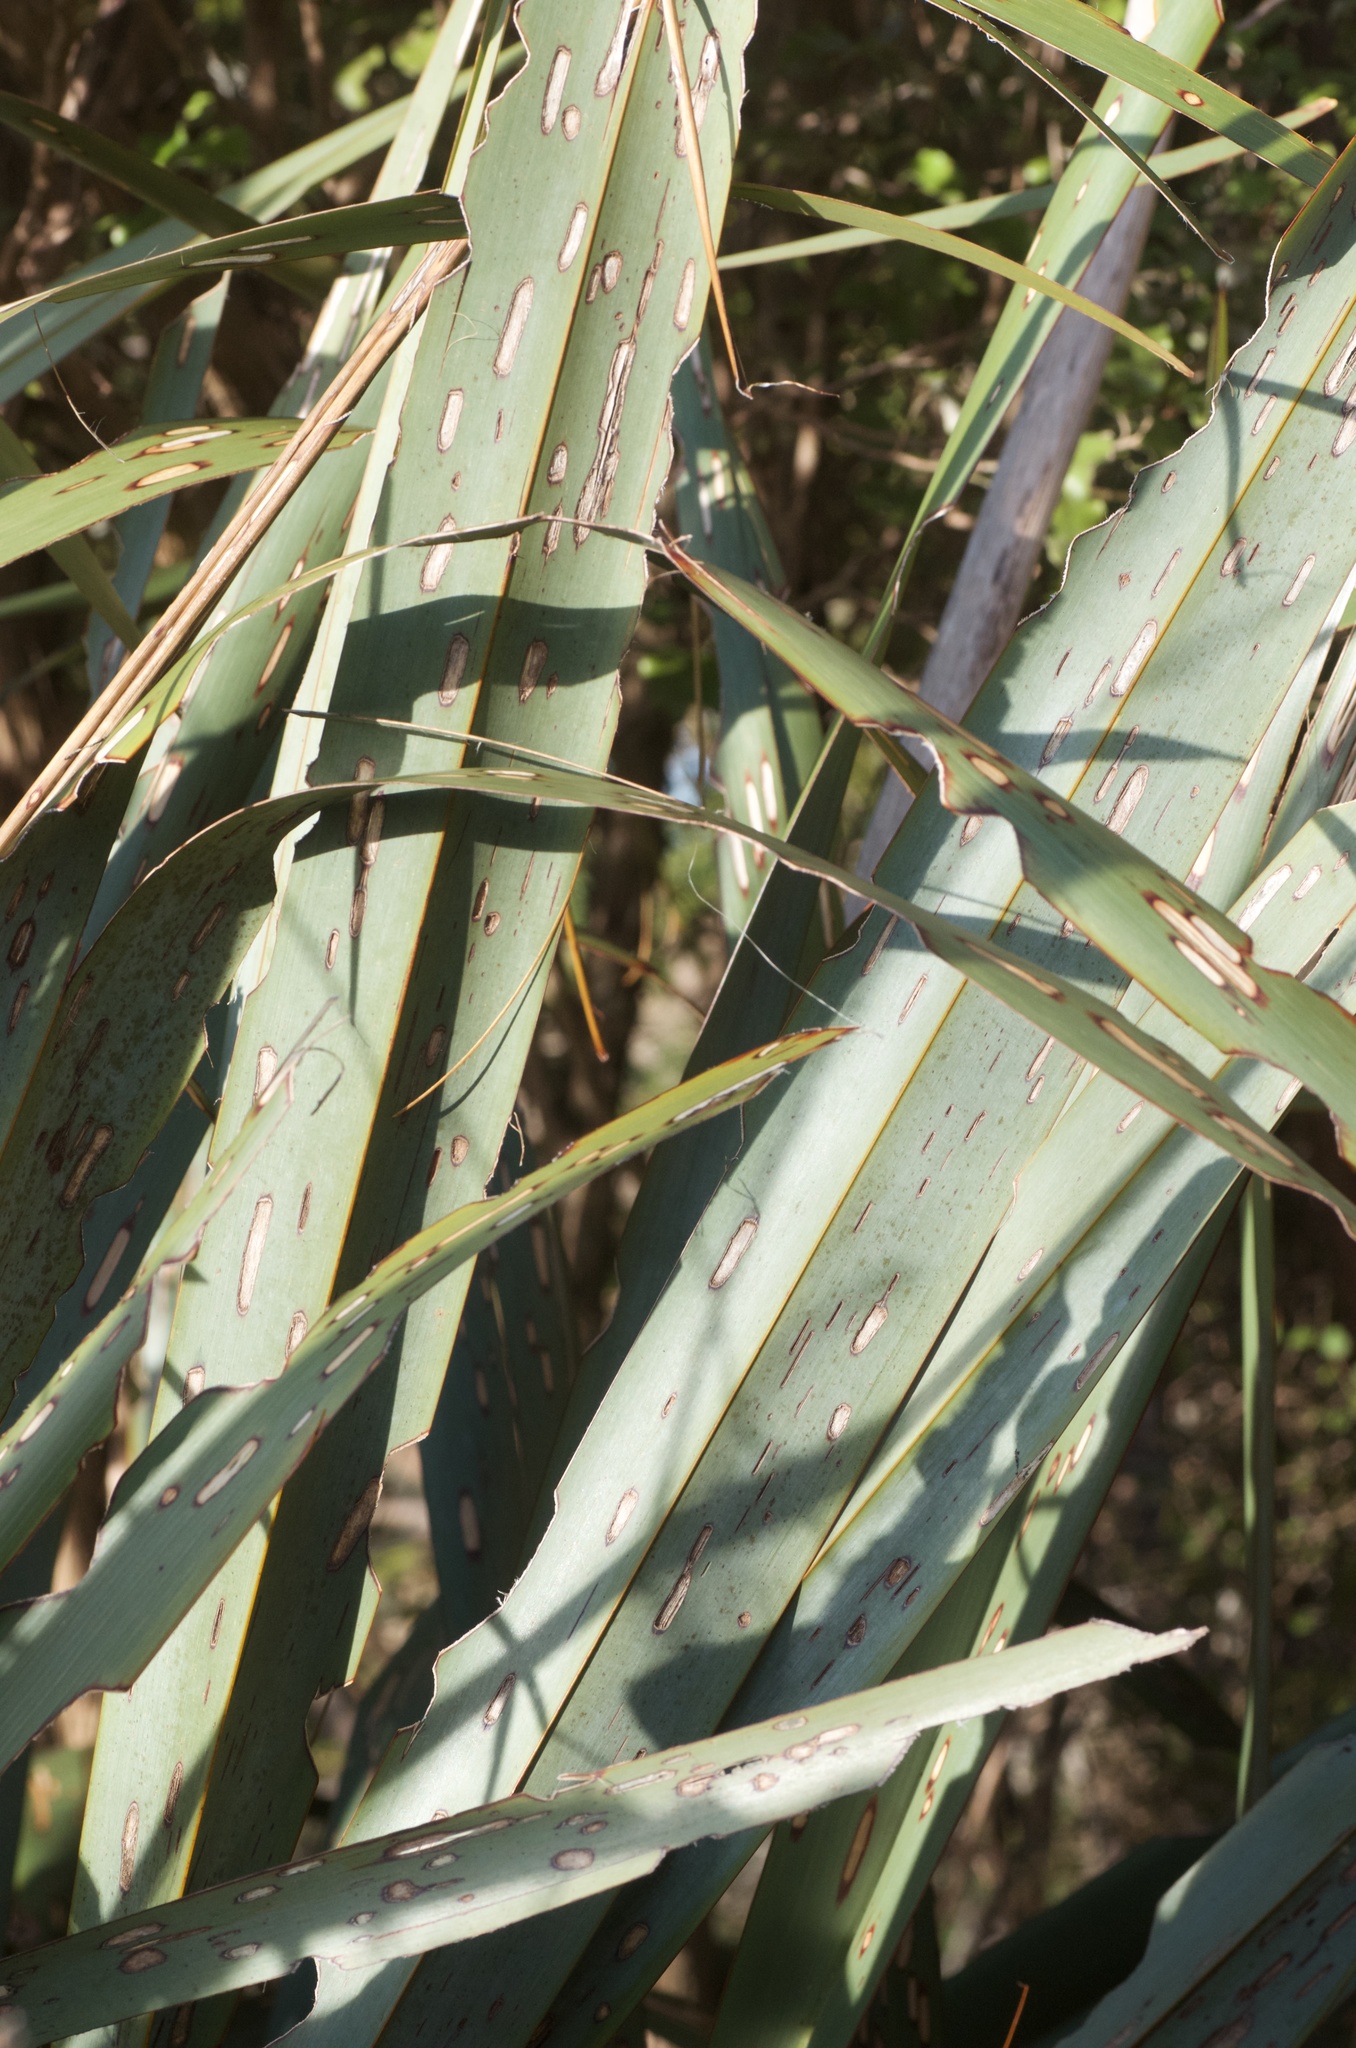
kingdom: Animalia
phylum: Arthropoda
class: Insecta
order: Lepidoptera
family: Noctuidae
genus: Ichneutica
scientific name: Ichneutica
